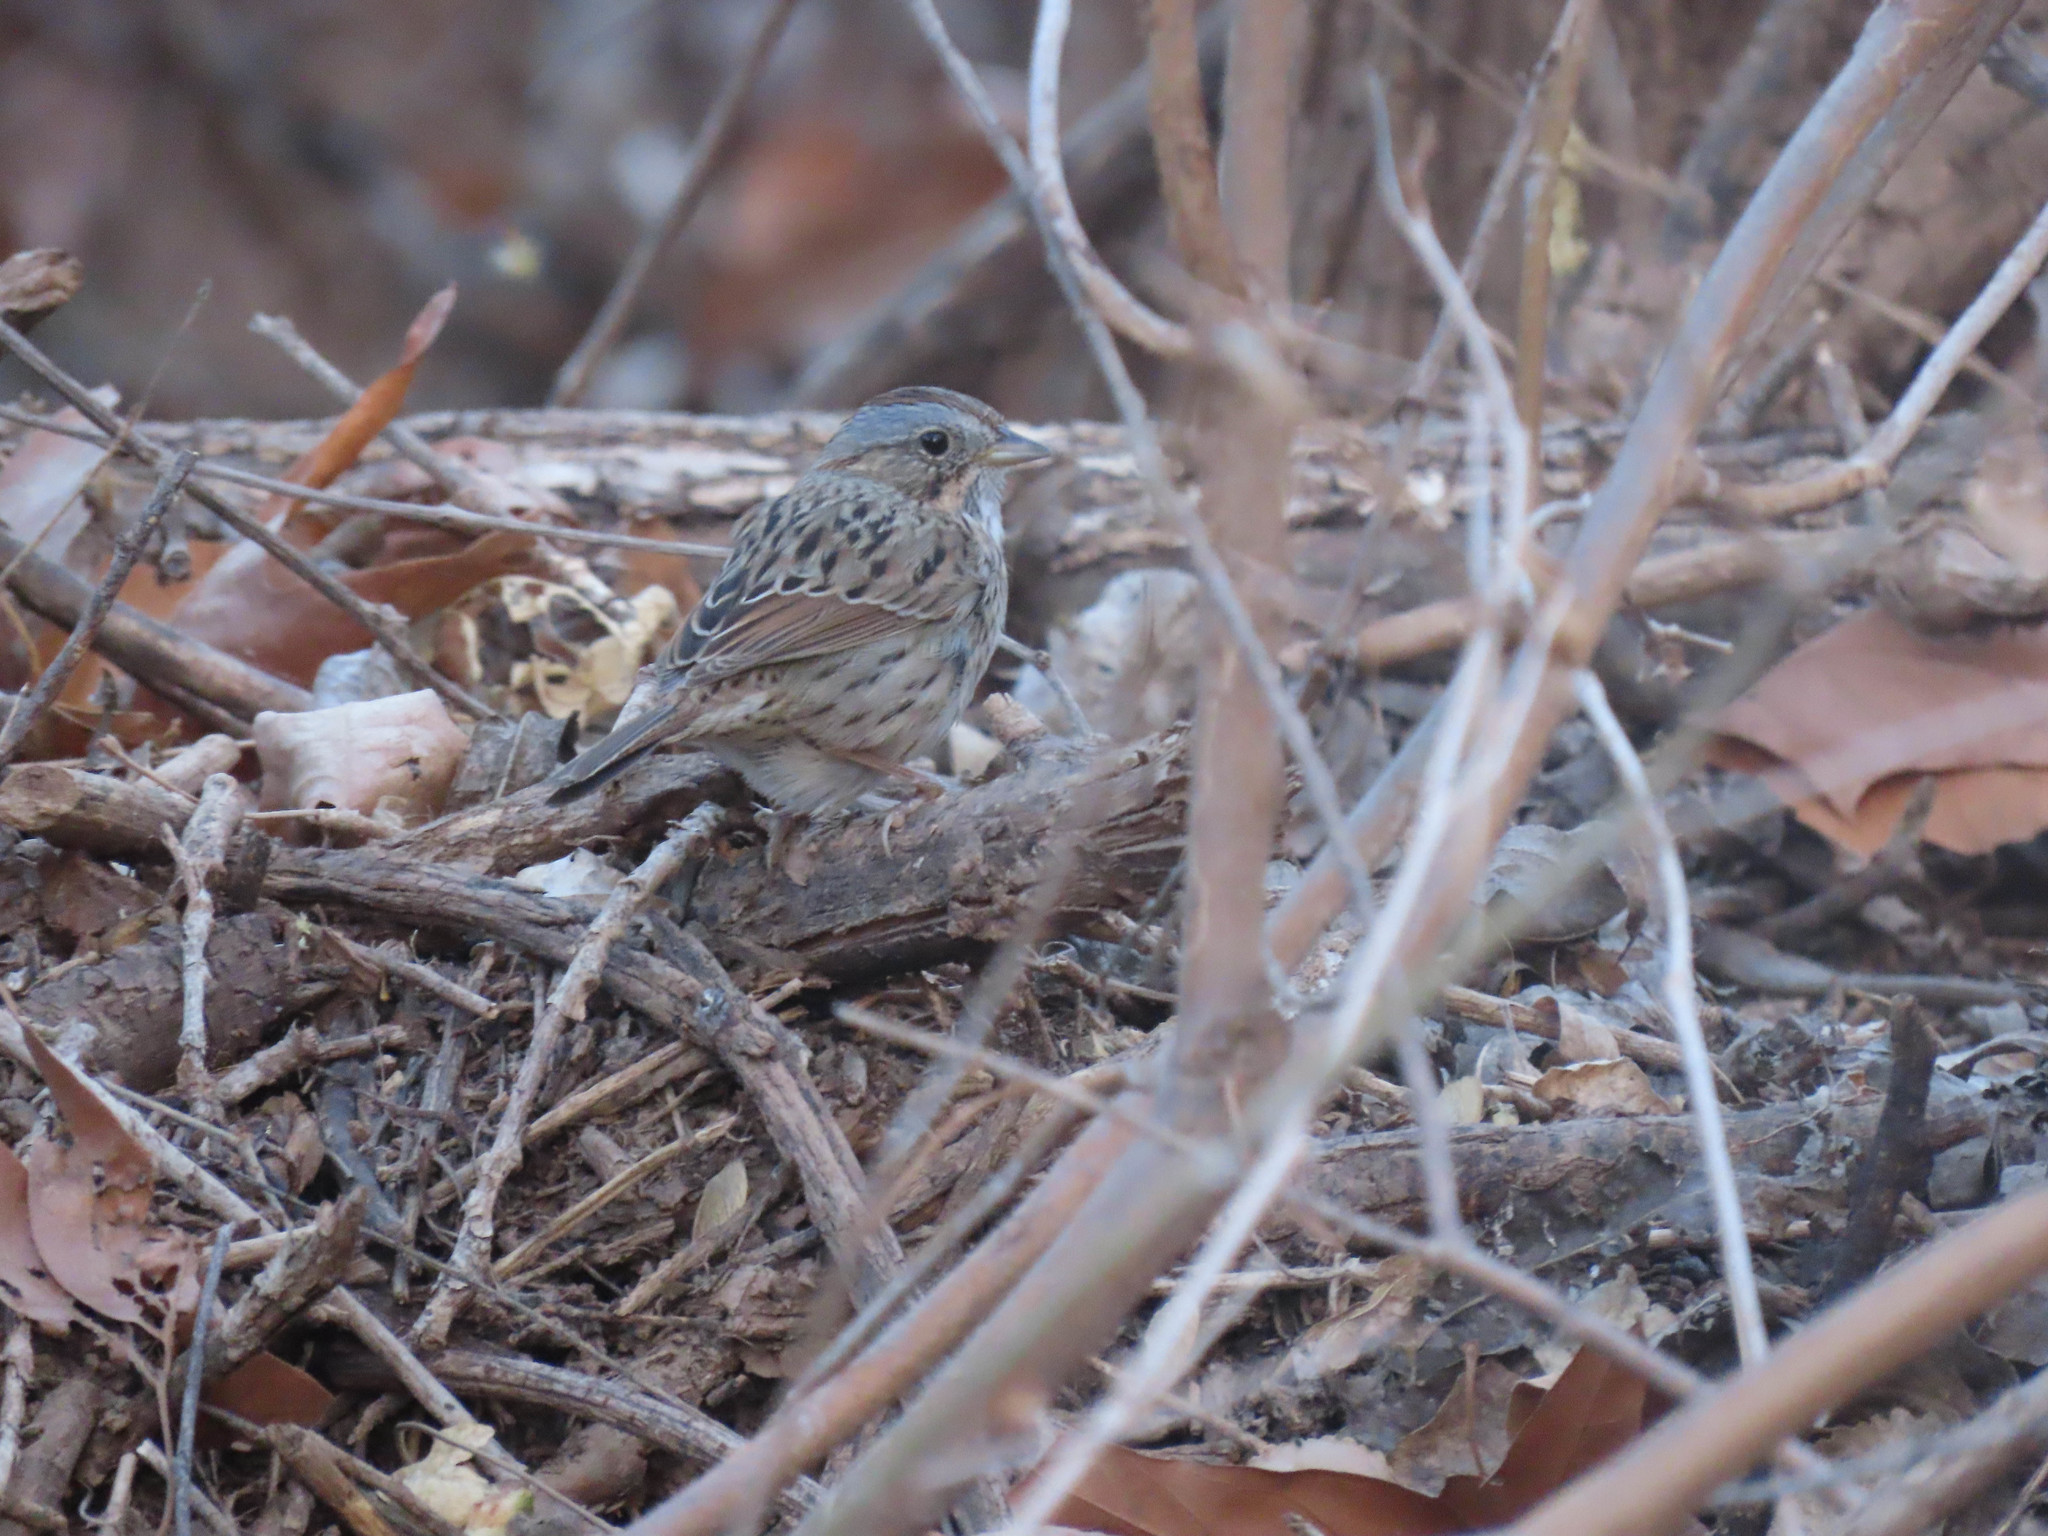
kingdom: Animalia
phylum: Chordata
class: Aves
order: Passeriformes
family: Passerellidae
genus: Melospiza
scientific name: Melospiza lincolnii
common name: Lincoln's sparrow
